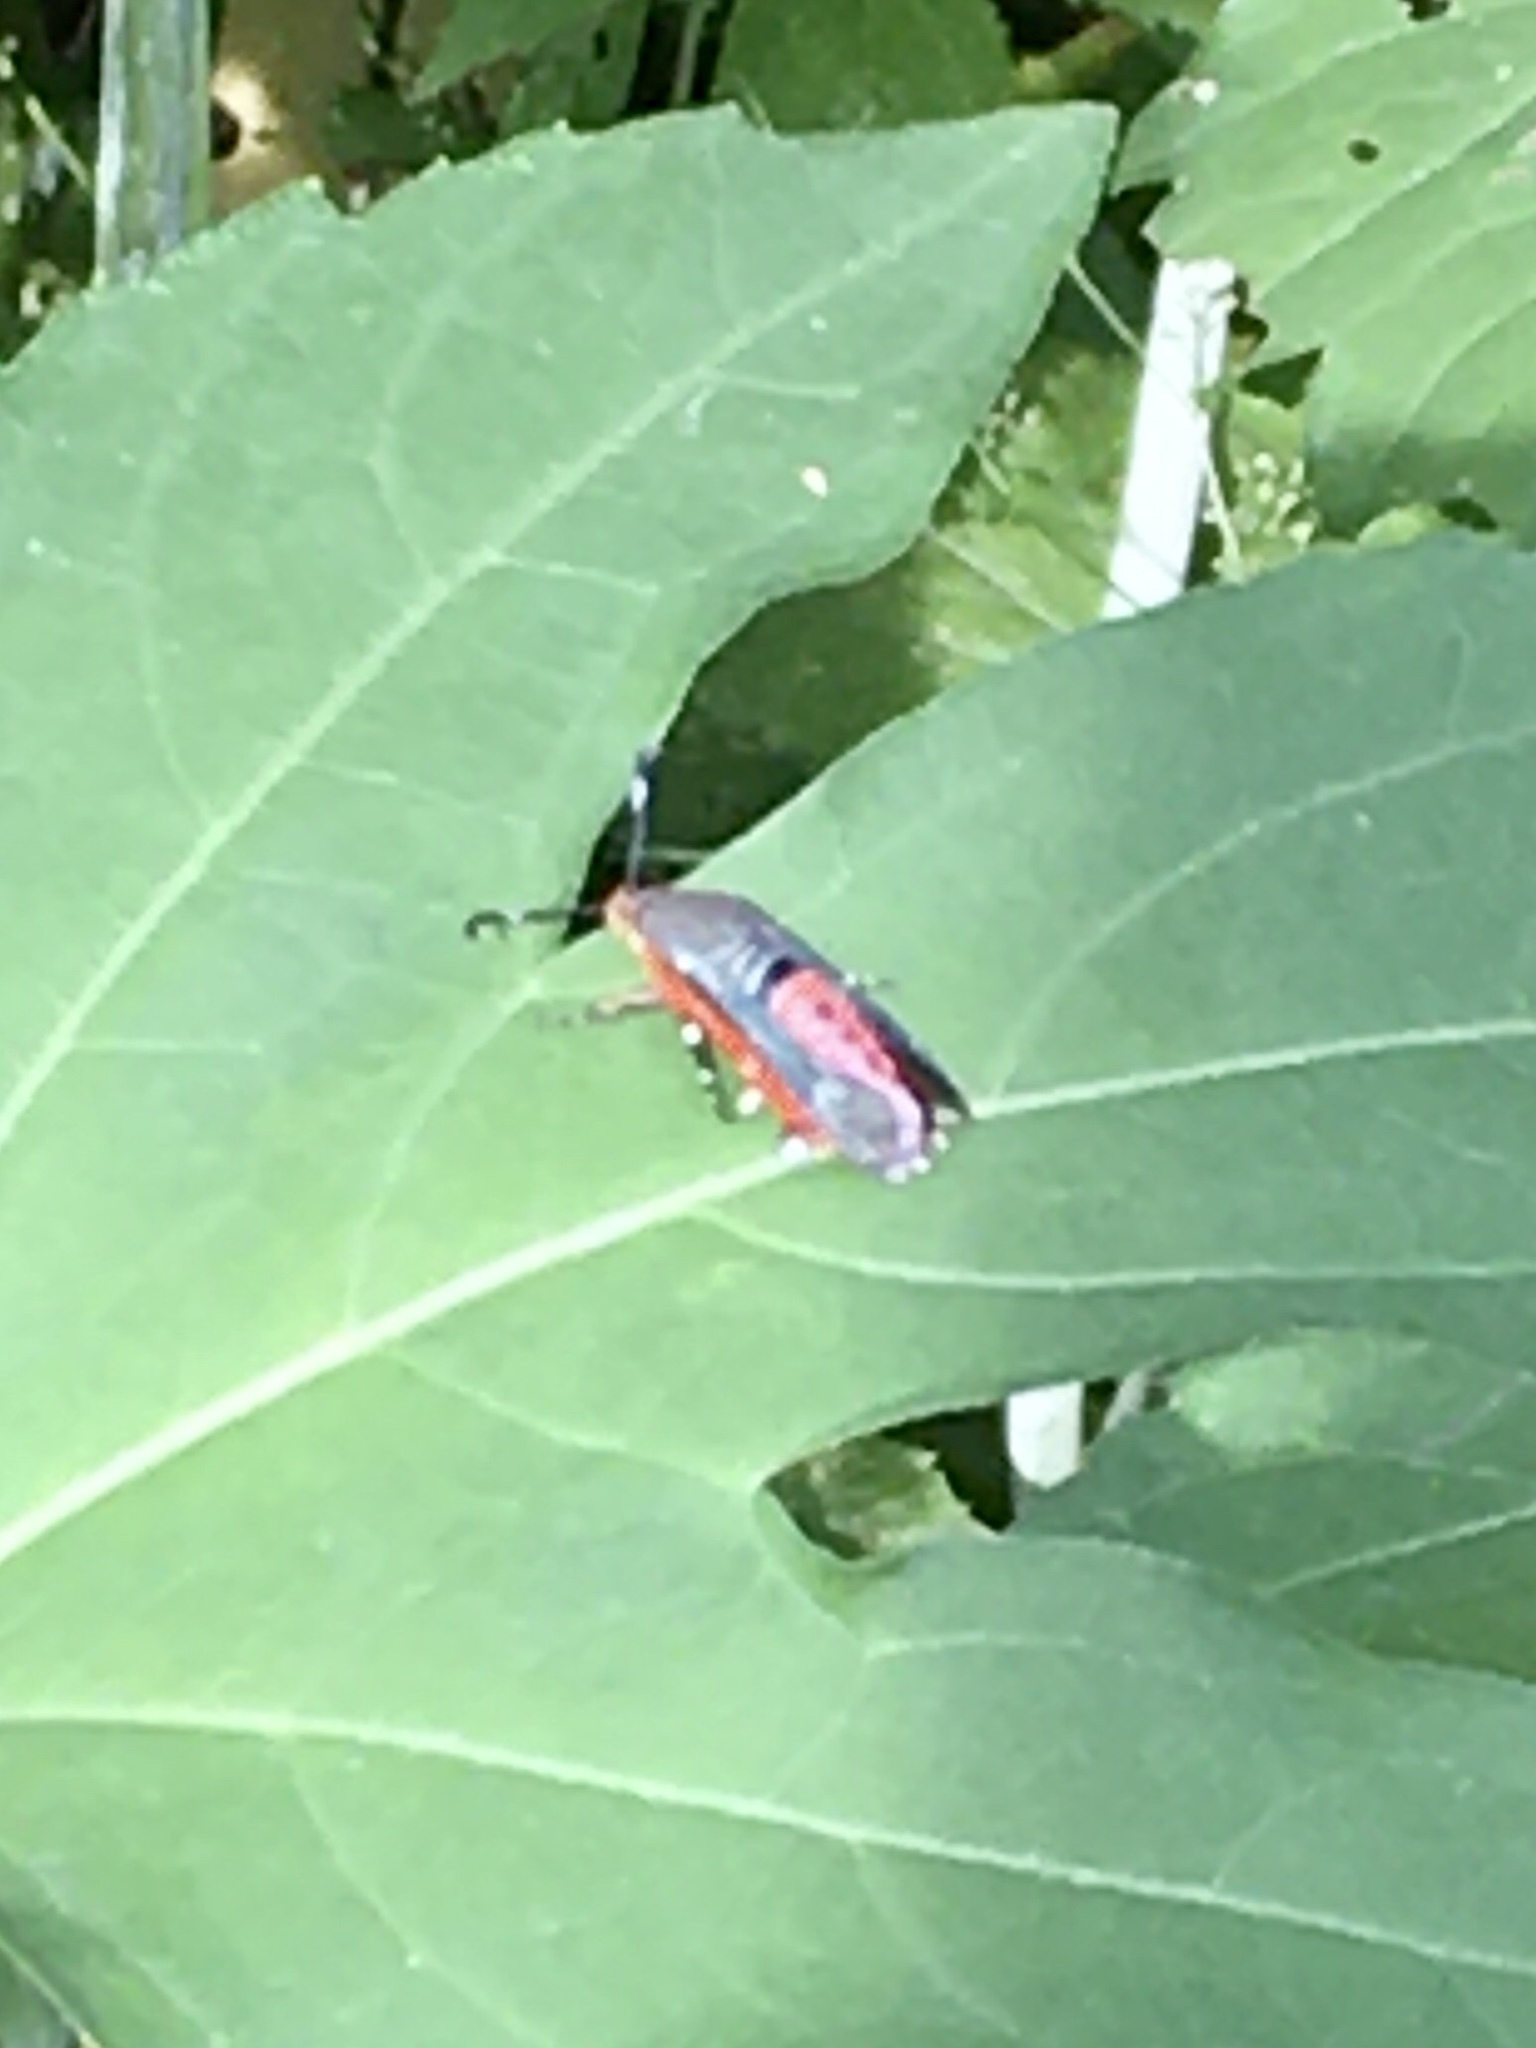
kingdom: Animalia
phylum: Arthropoda
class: Insecta
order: Lepidoptera
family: Sesiidae
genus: Eichlinia
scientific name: Eichlinia cucurbitae
